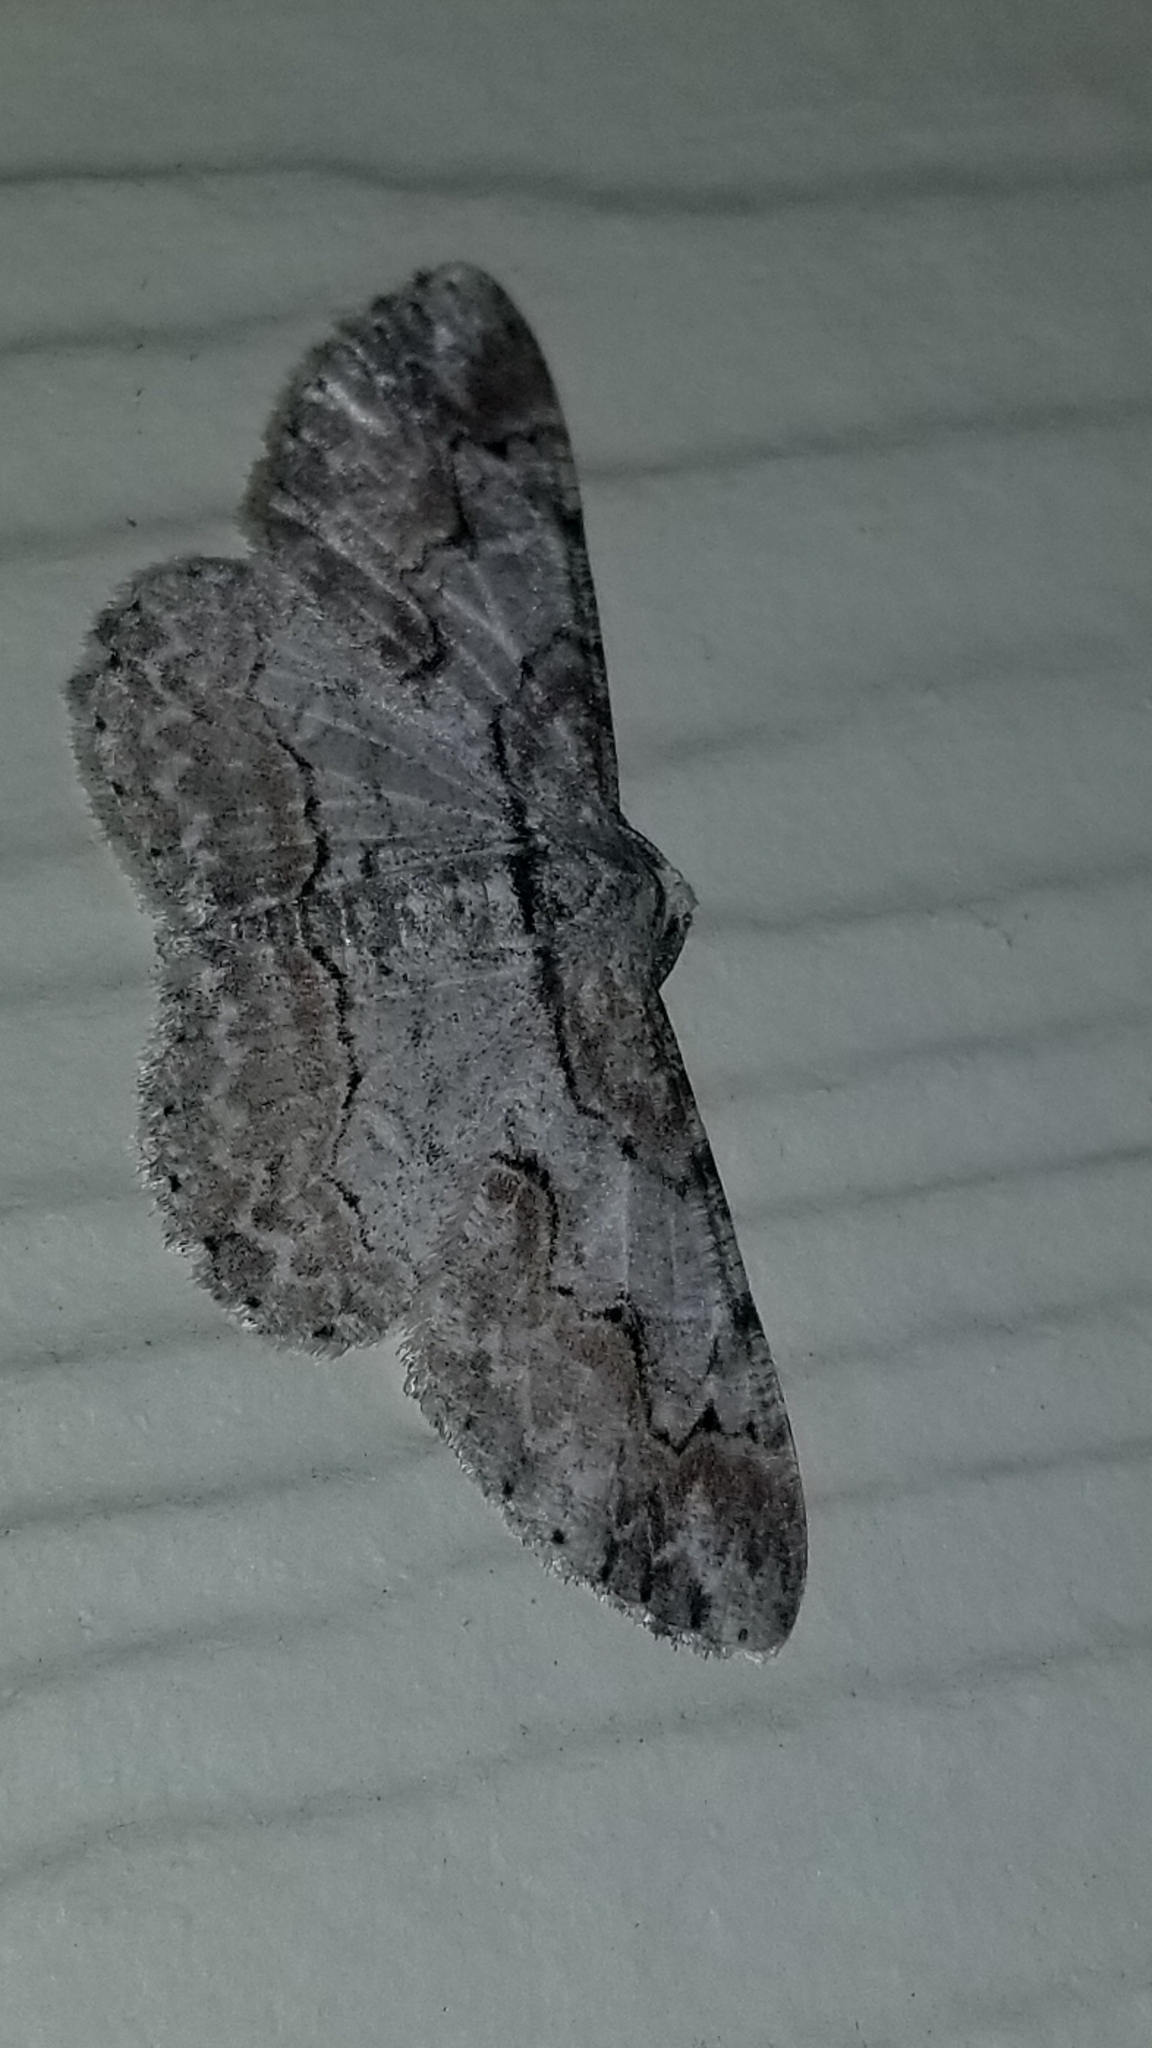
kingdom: Animalia
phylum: Arthropoda
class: Insecta
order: Lepidoptera
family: Geometridae
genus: Iridopsis
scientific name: Iridopsis defectaria
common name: Brown-shaded gray
